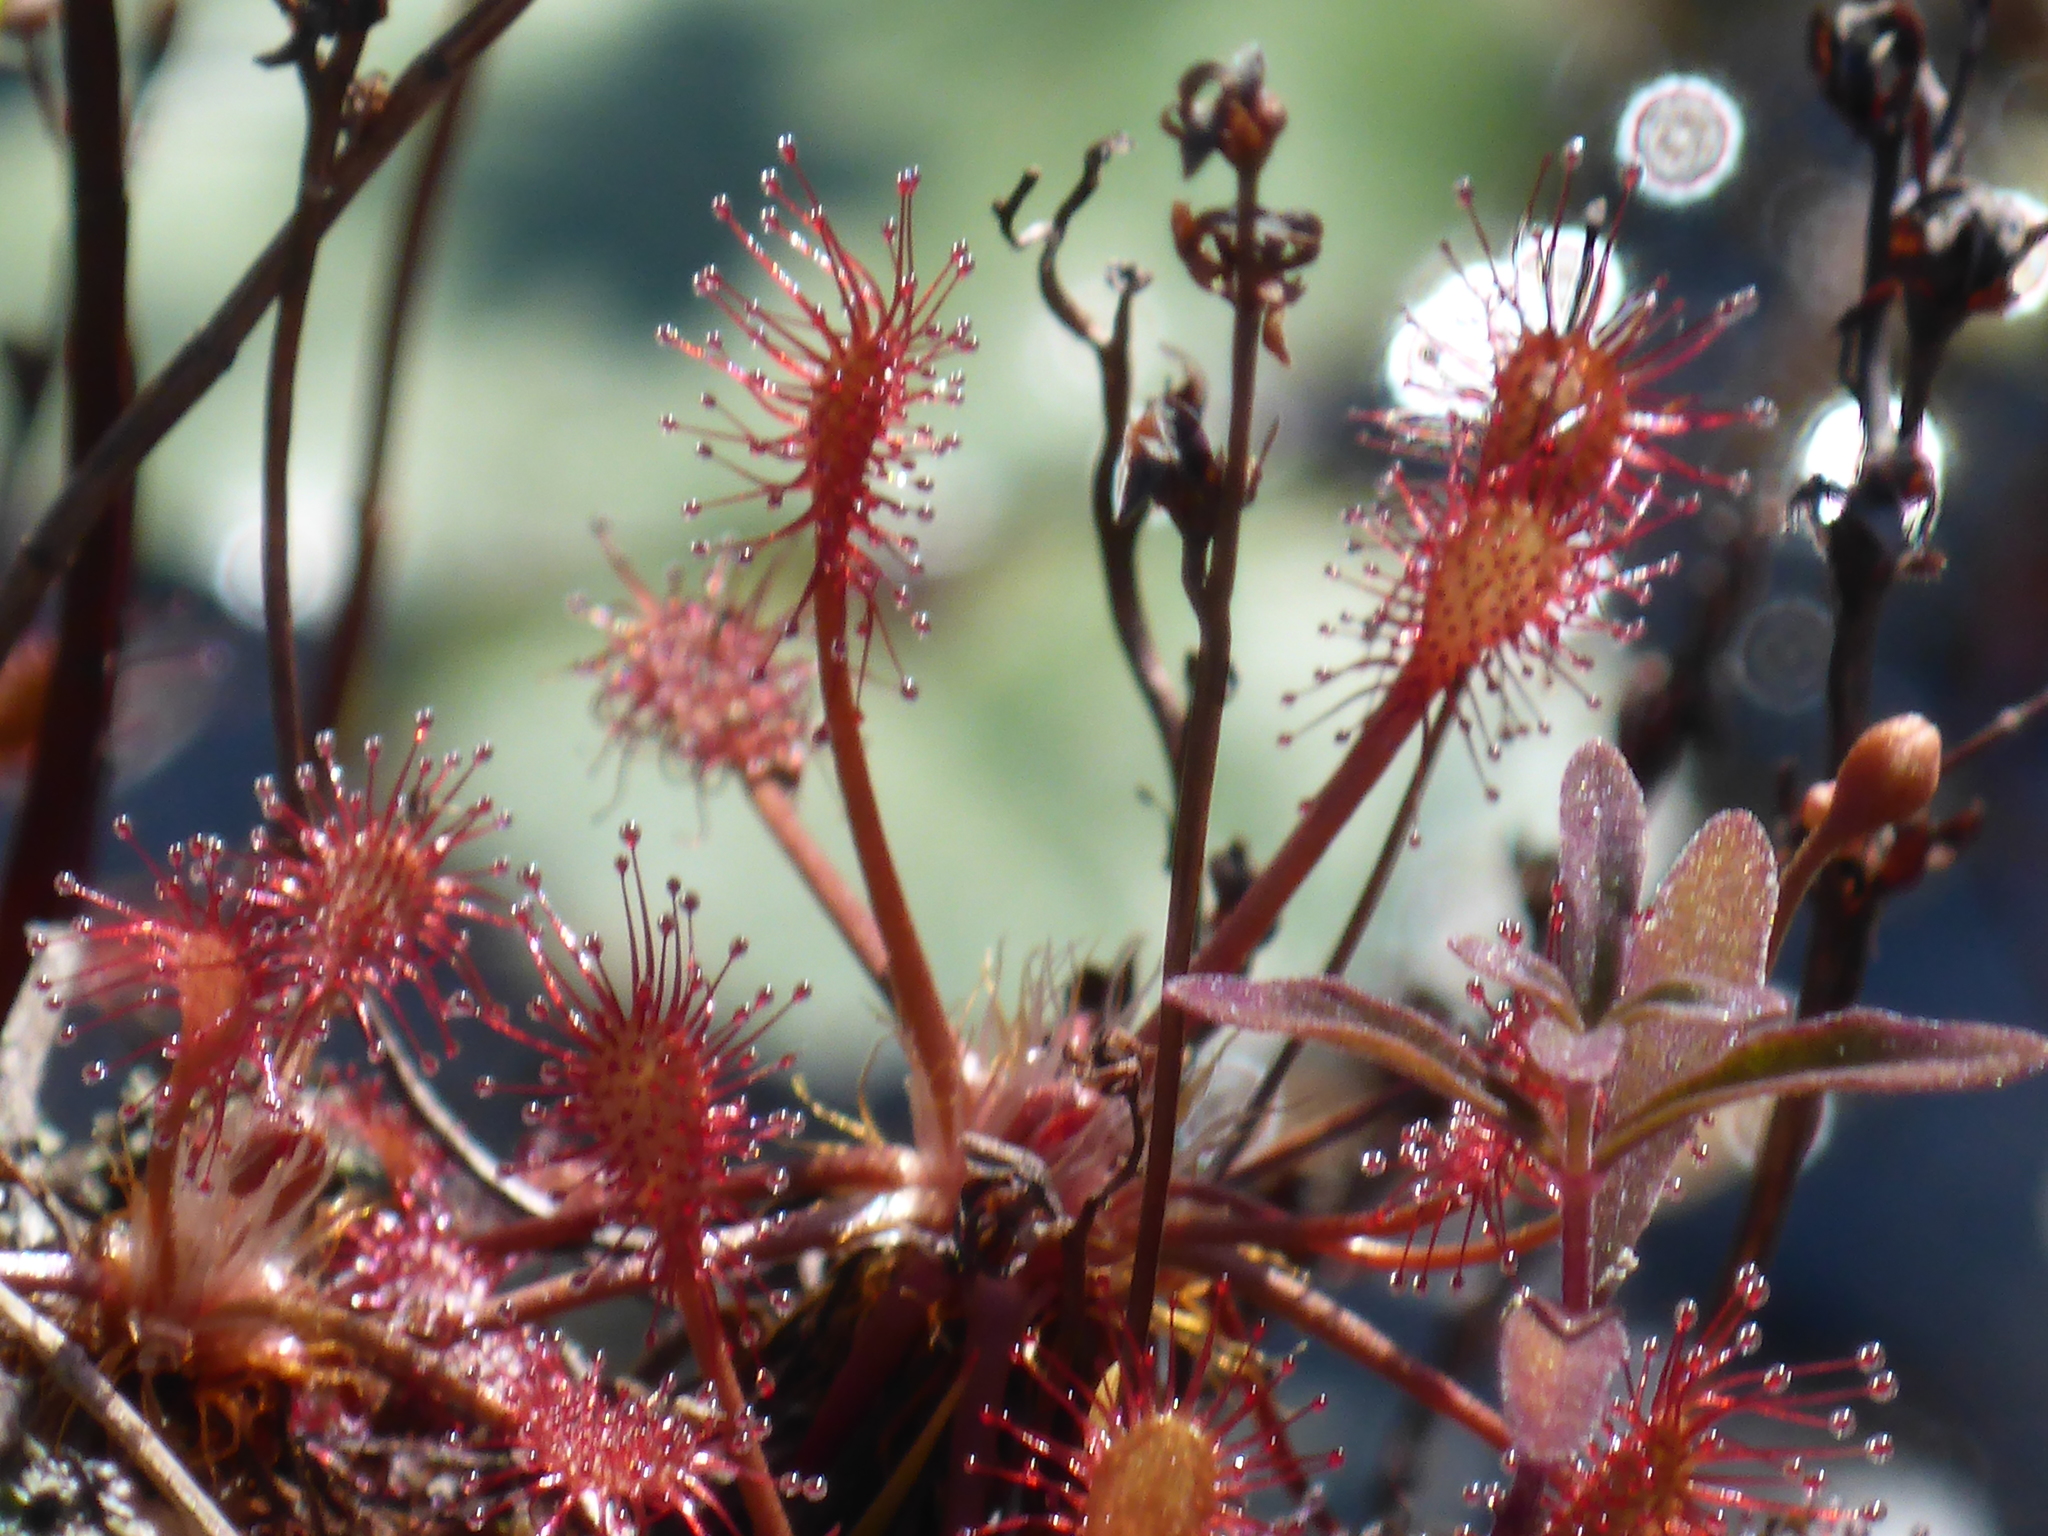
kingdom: Plantae
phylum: Tracheophyta
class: Magnoliopsida
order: Caryophyllales
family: Droseraceae
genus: Drosera
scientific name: Drosera intermedia
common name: Oblong-leaved sundew
